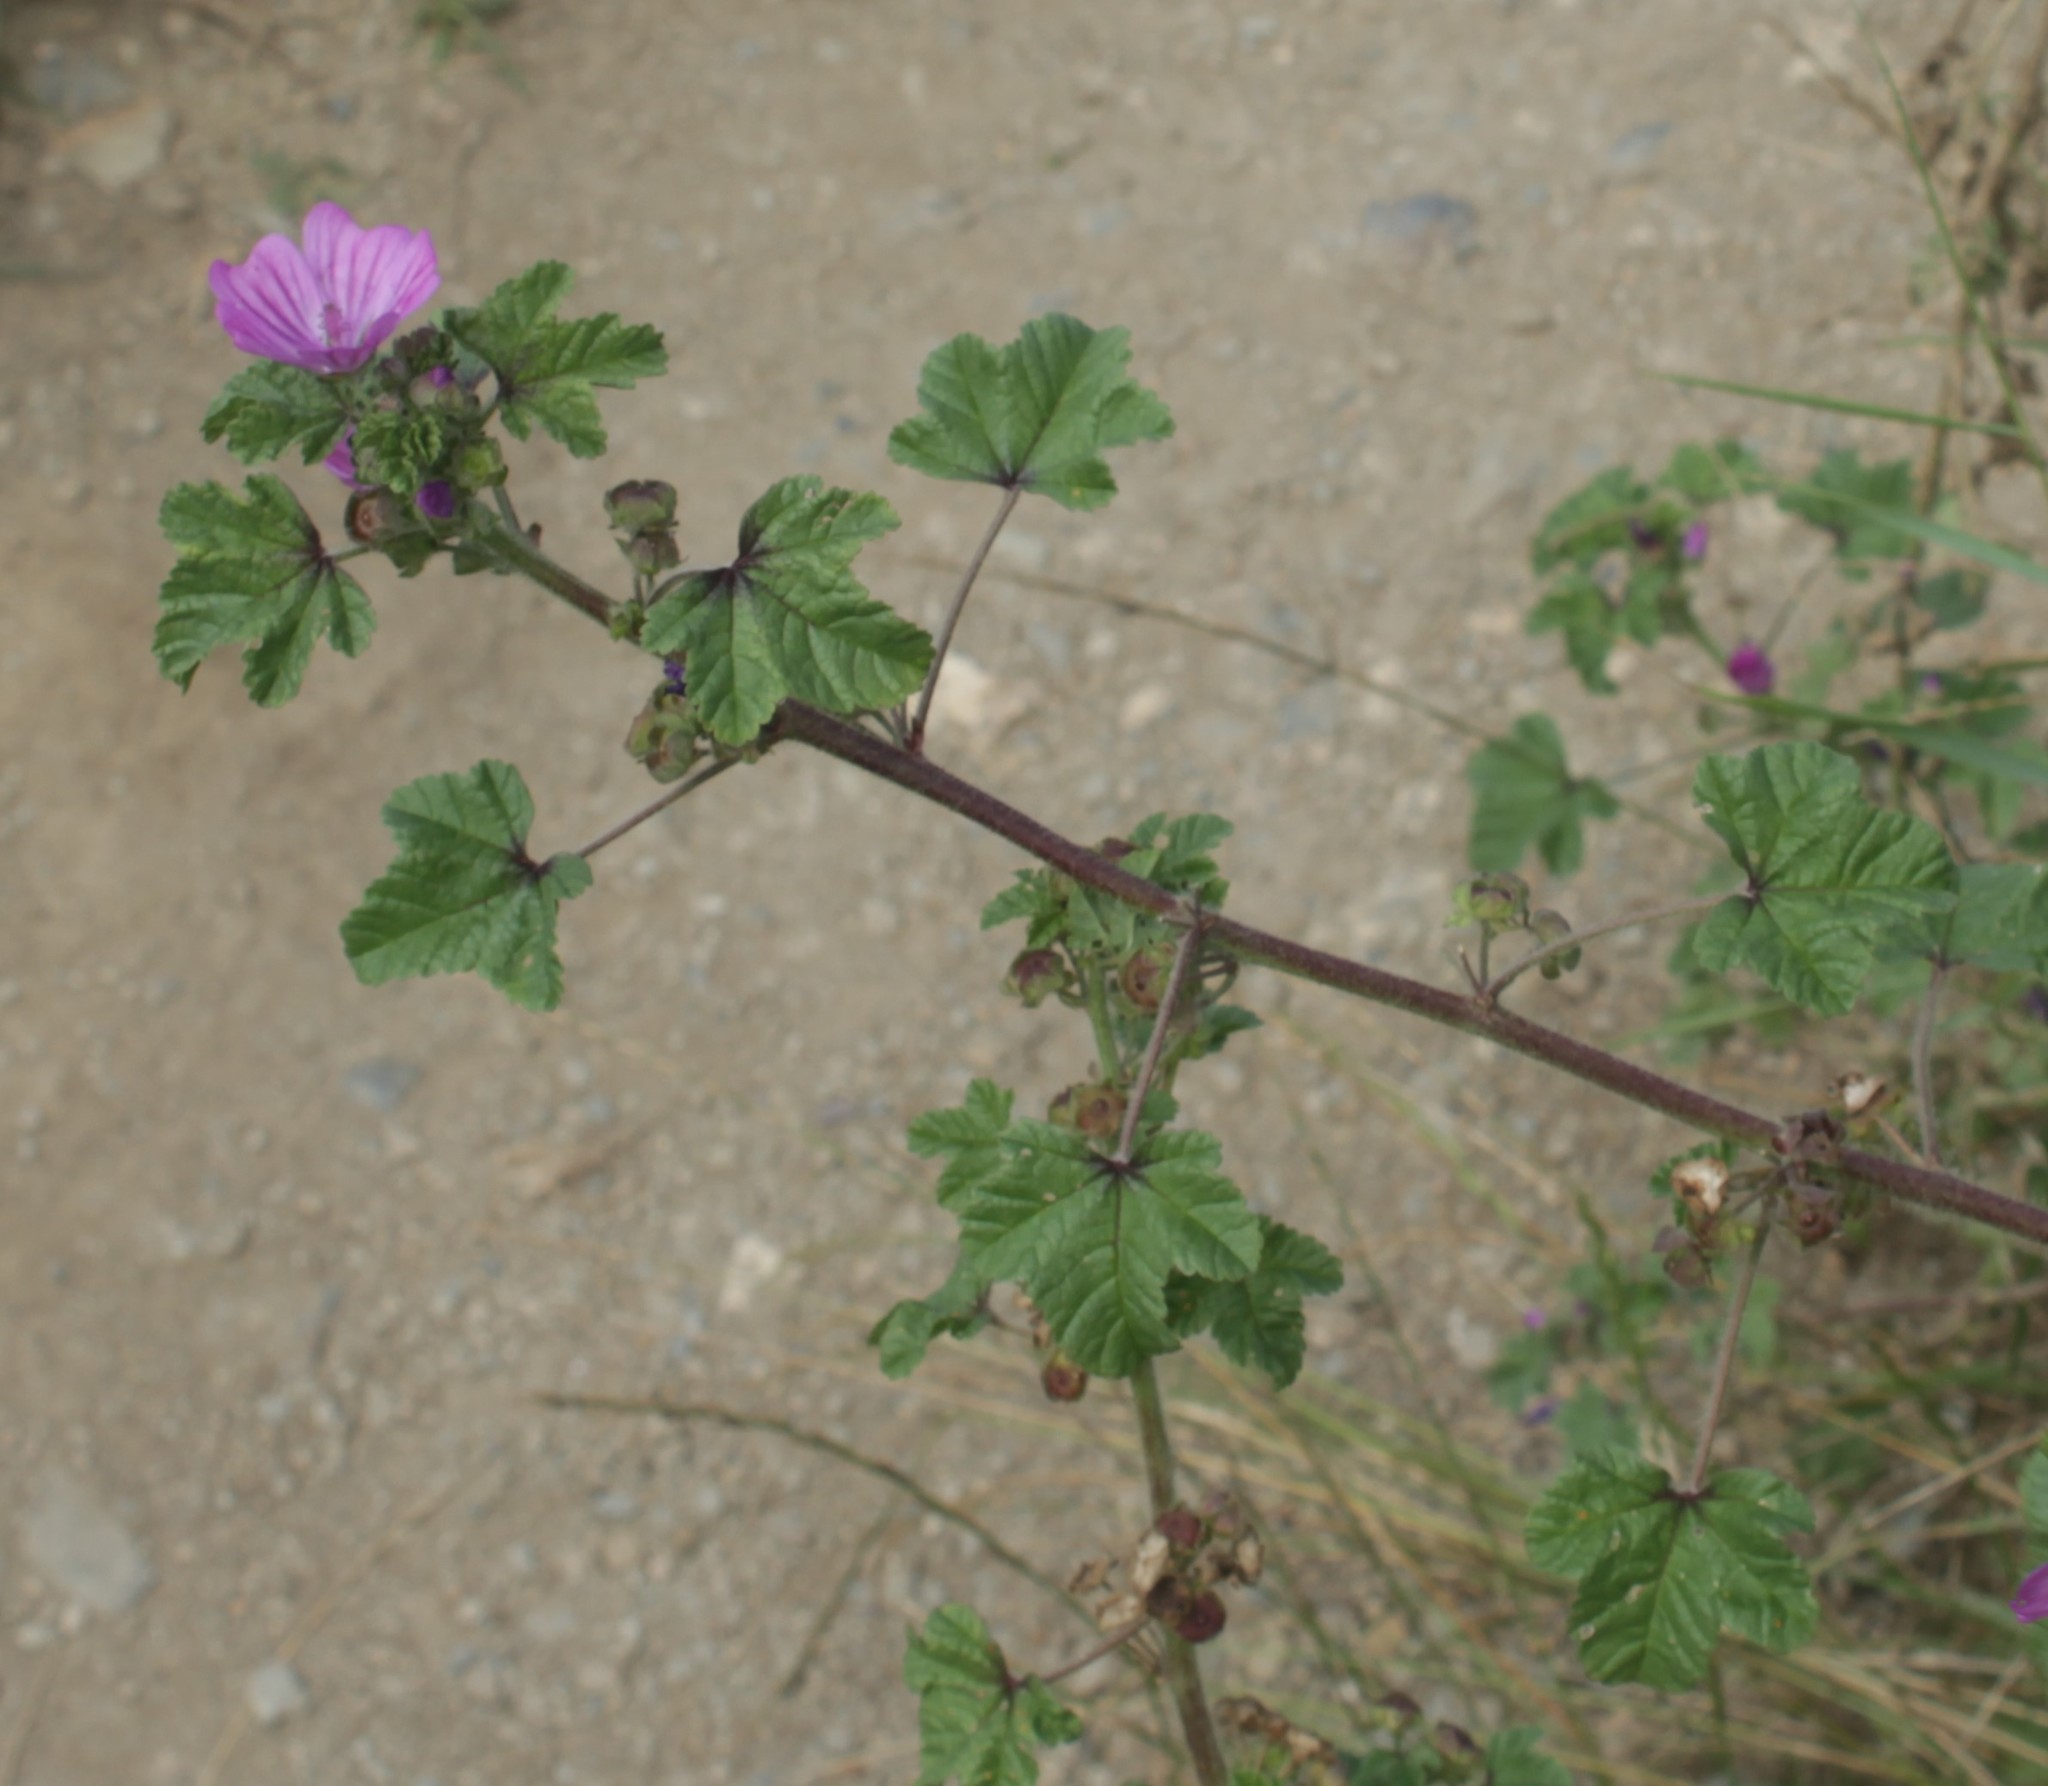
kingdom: Plantae
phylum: Tracheophyta
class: Magnoliopsida
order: Malvales
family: Malvaceae
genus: Malva
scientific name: Malva sylvestris
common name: Common mallow
